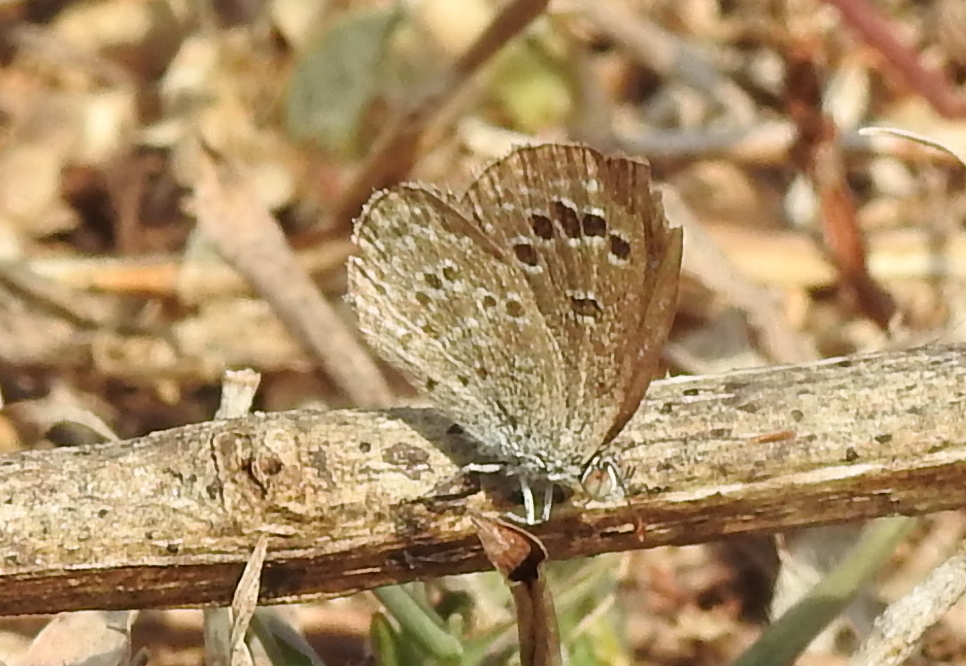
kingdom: Animalia
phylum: Arthropoda
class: Insecta
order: Lepidoptera
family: Lycaenidae
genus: Zizina
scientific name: Zizina otis
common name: Lesser grass blue
